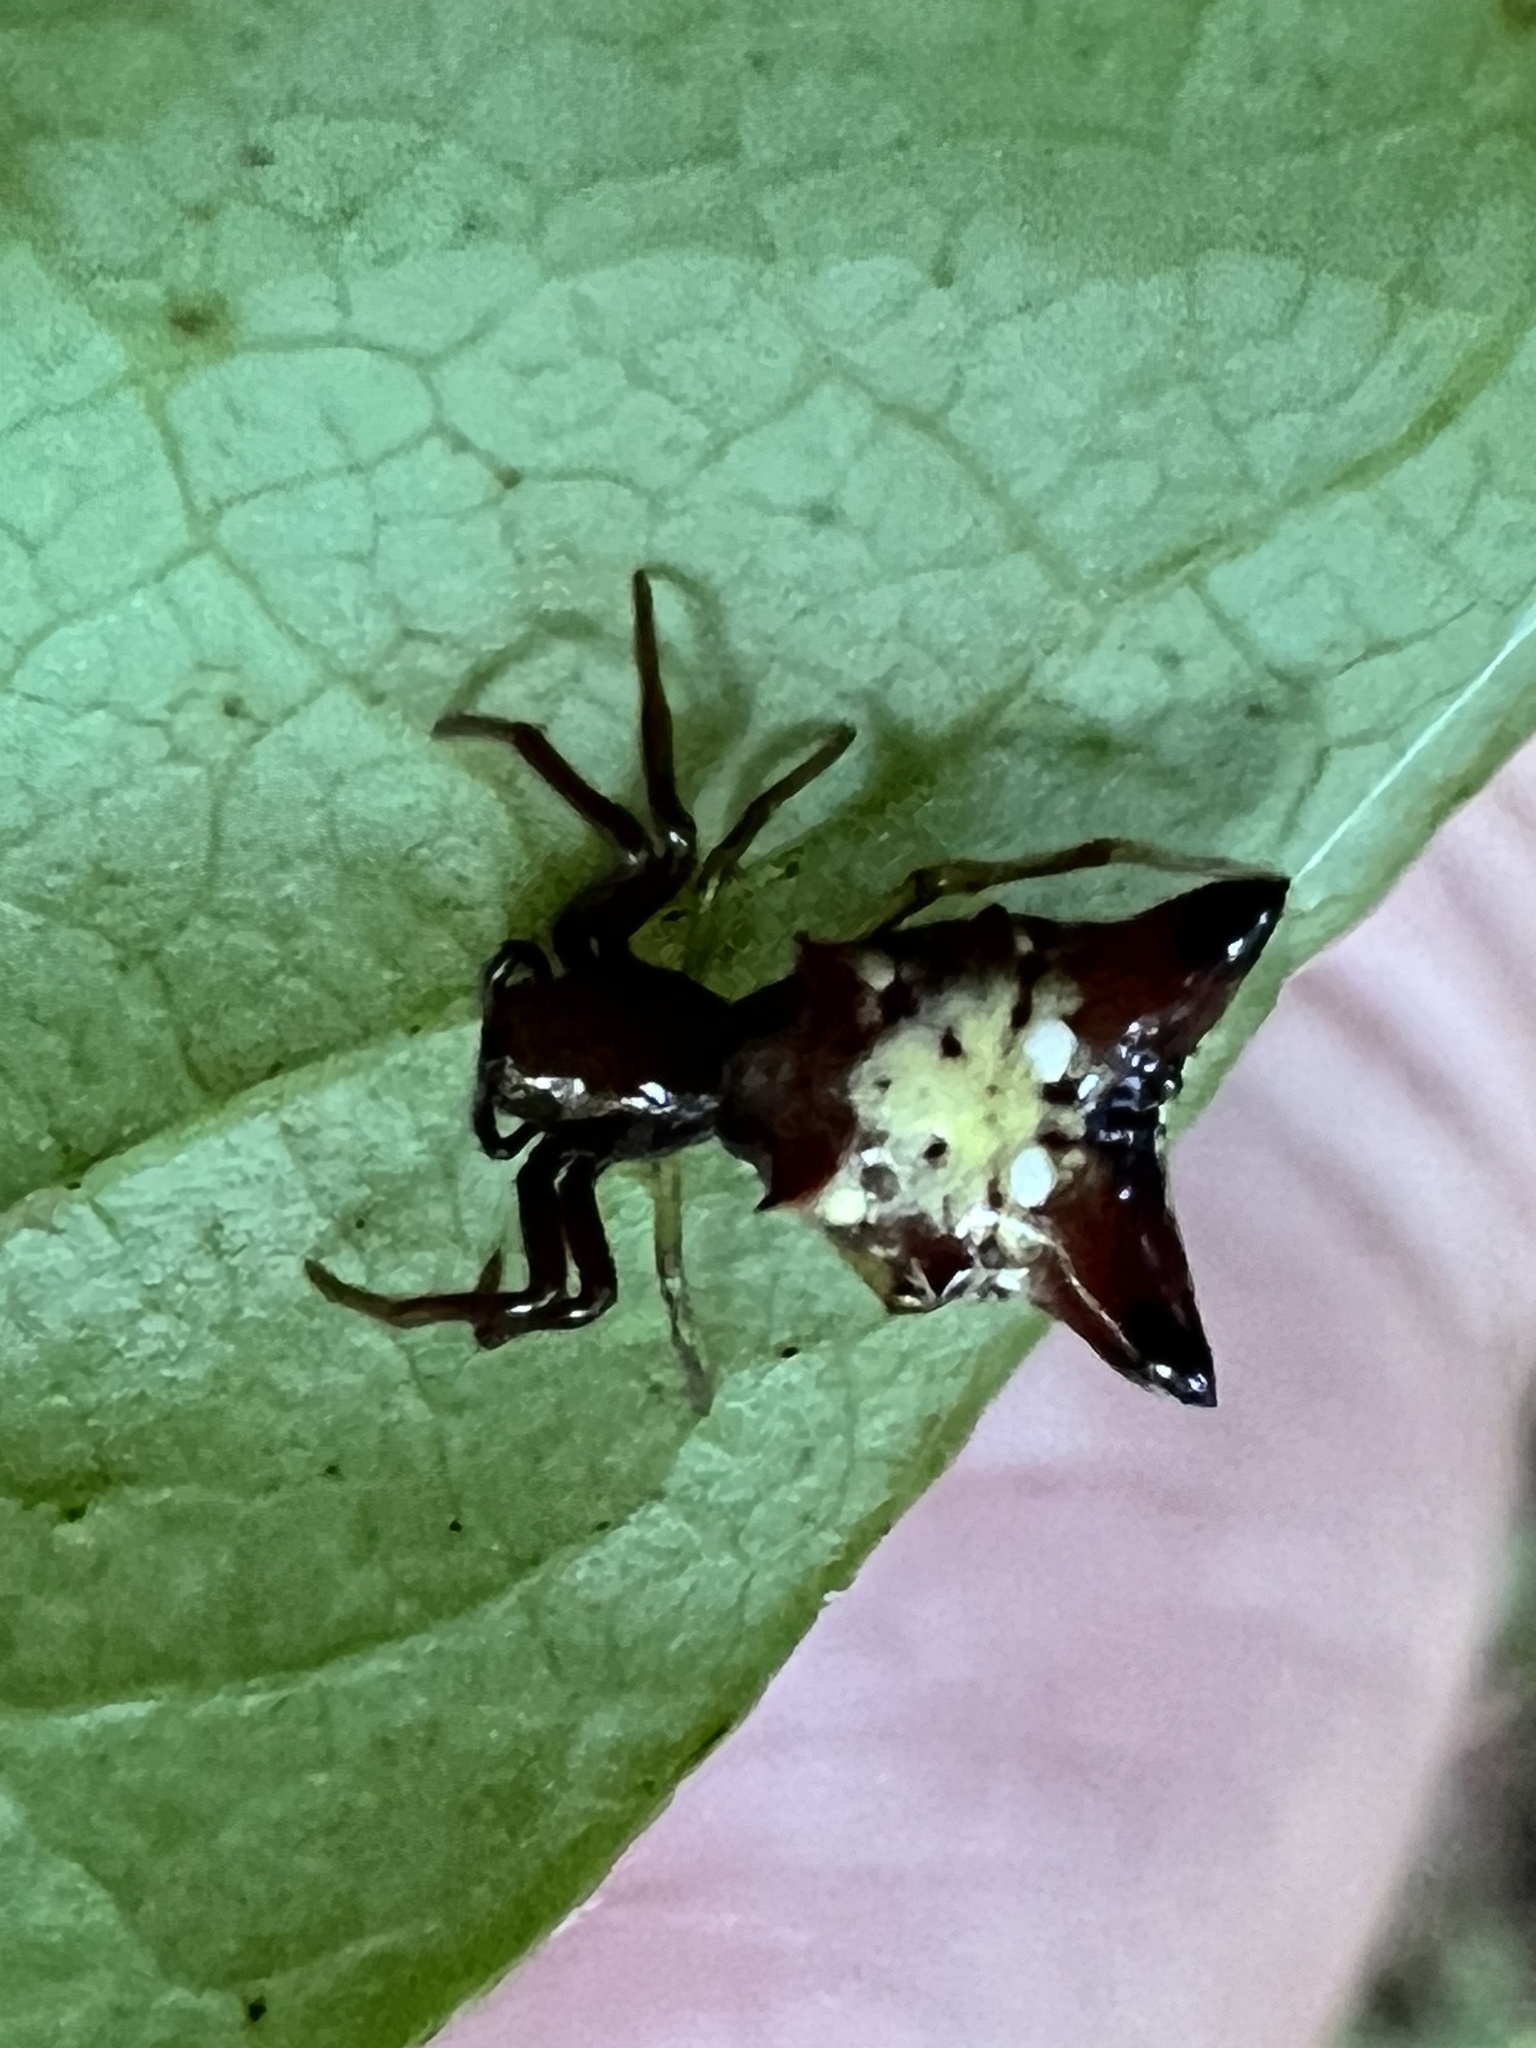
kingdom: Animalia
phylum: Arthropoda
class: Arachnida
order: Araneae
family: Araneidae
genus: Micrathena
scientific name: Micrathena sagittata
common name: Orb weavers
